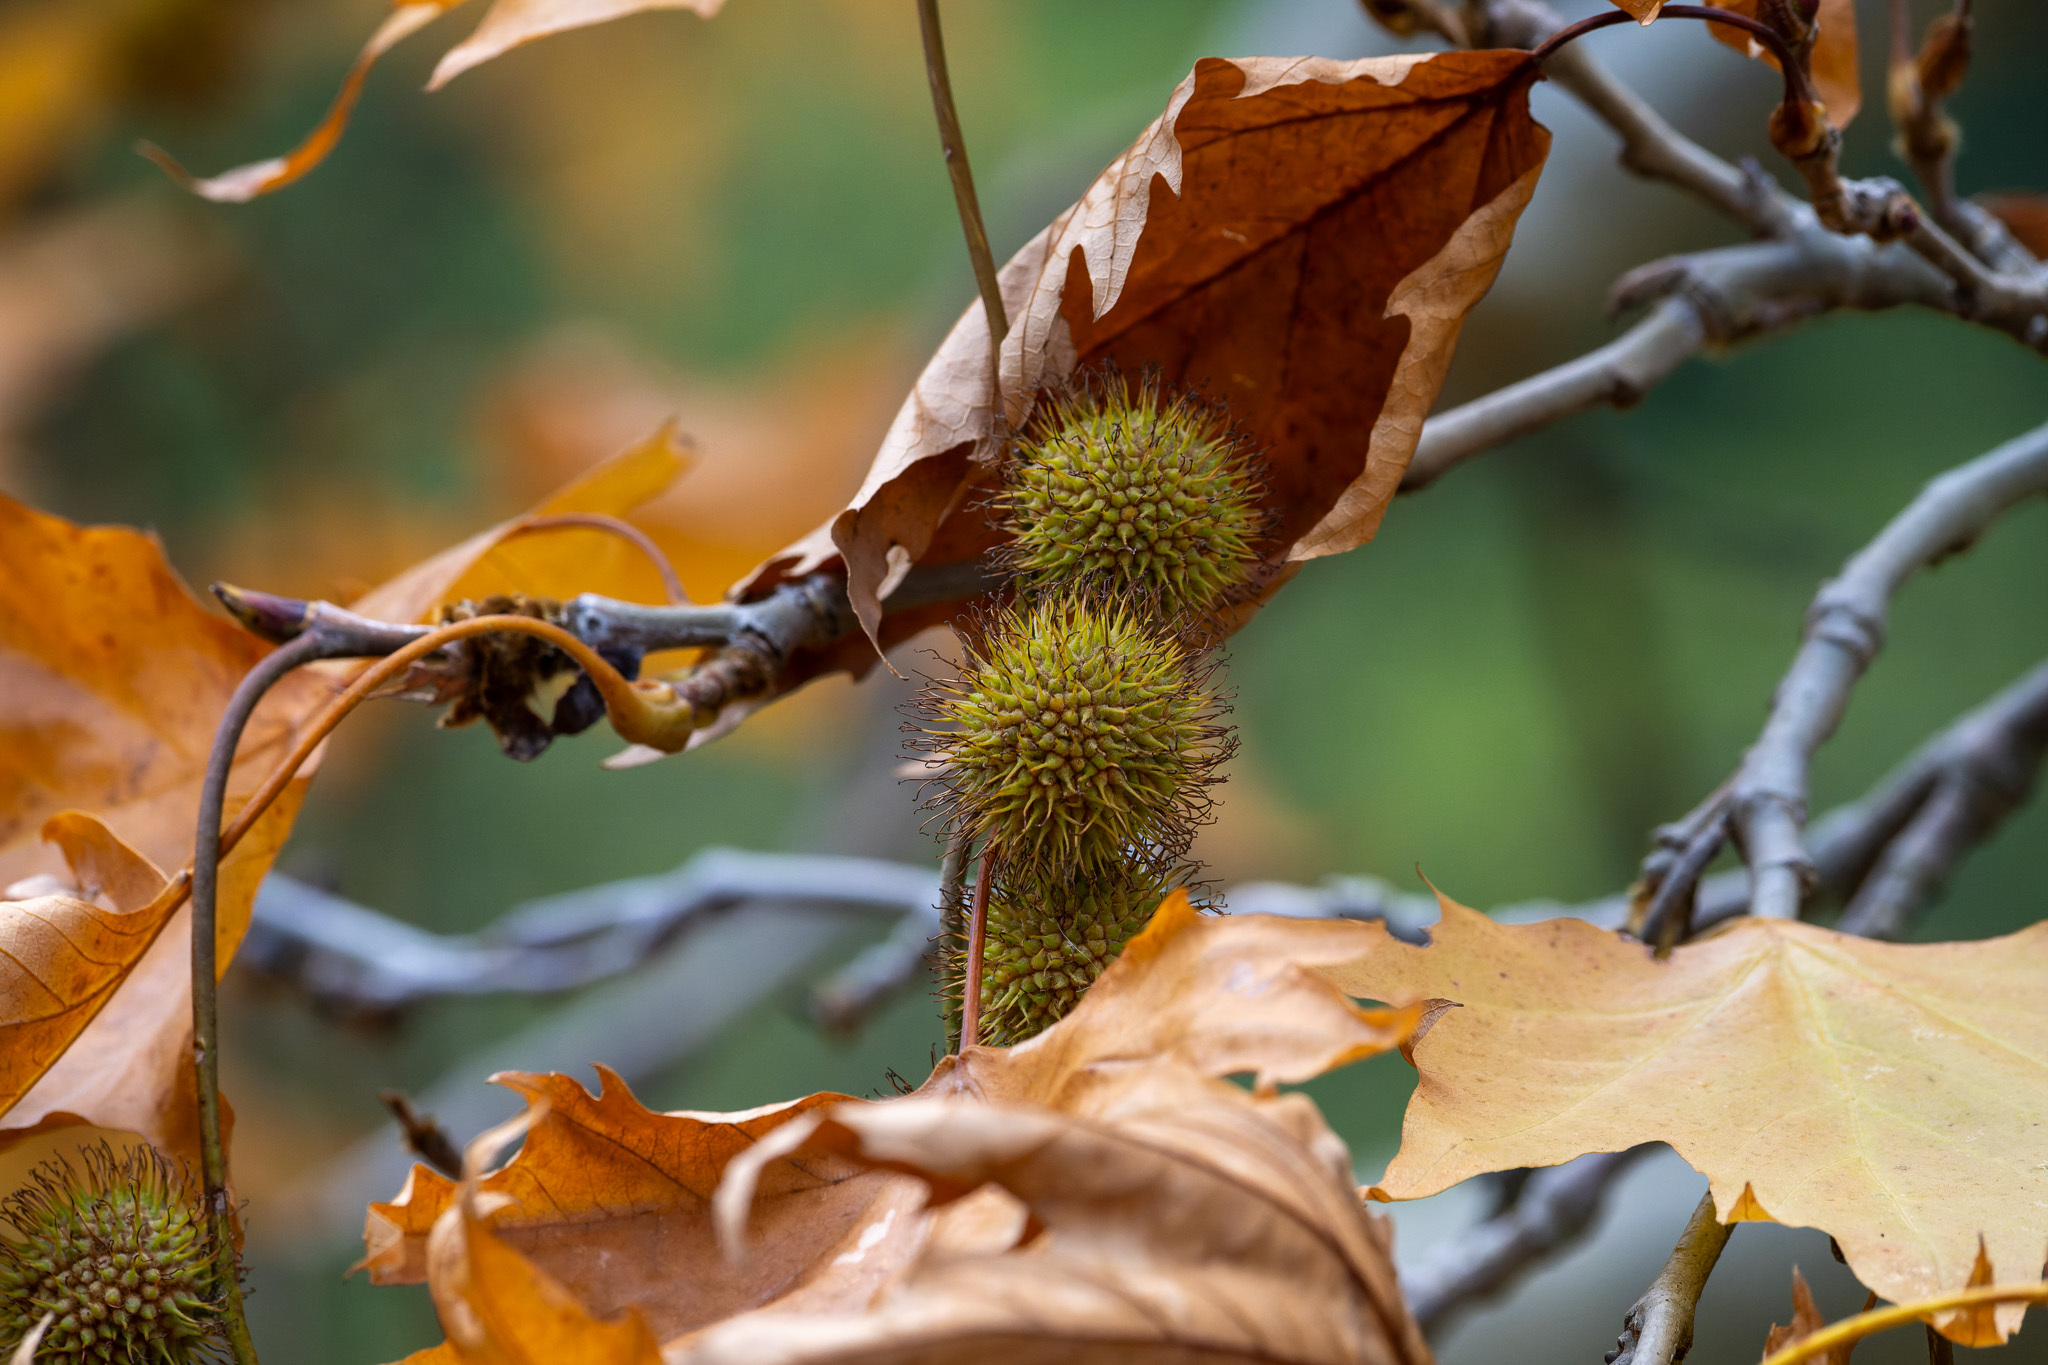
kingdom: Plantae
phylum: Tracheophyta
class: Magnoliopsida
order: Proteales
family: Platanaceae
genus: Platanus
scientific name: Platanus orientalis
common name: Oriental plane
